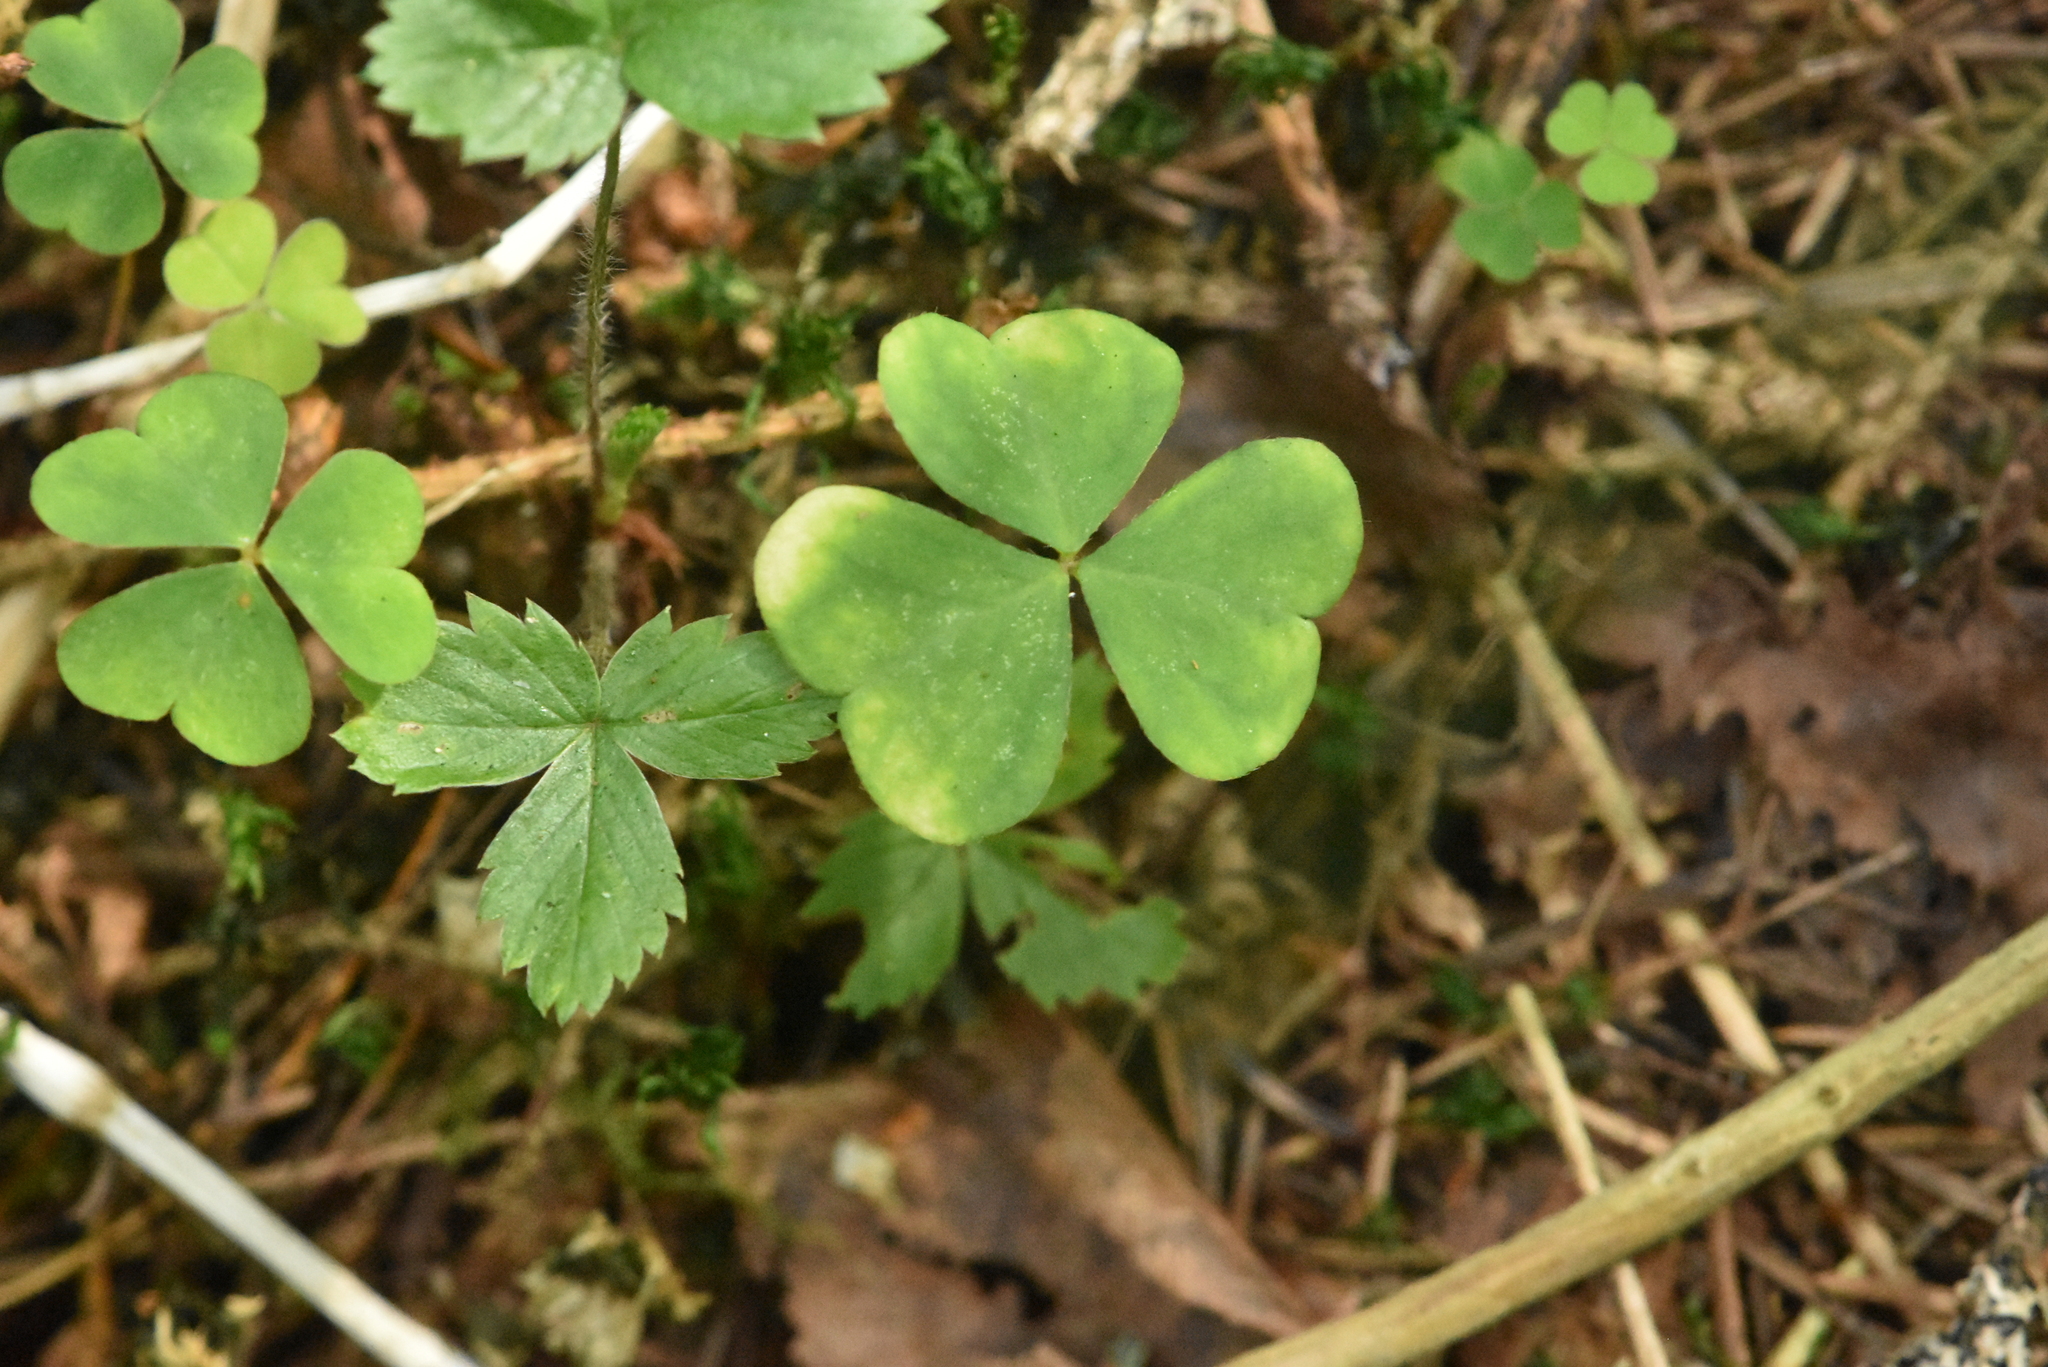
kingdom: Plantae
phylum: Tracheophyta
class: Magnoliopsida
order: Oxalidales
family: Oxalidaceae
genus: Oxalis
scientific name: Oxalis acetosella
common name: Wood-sorrel
